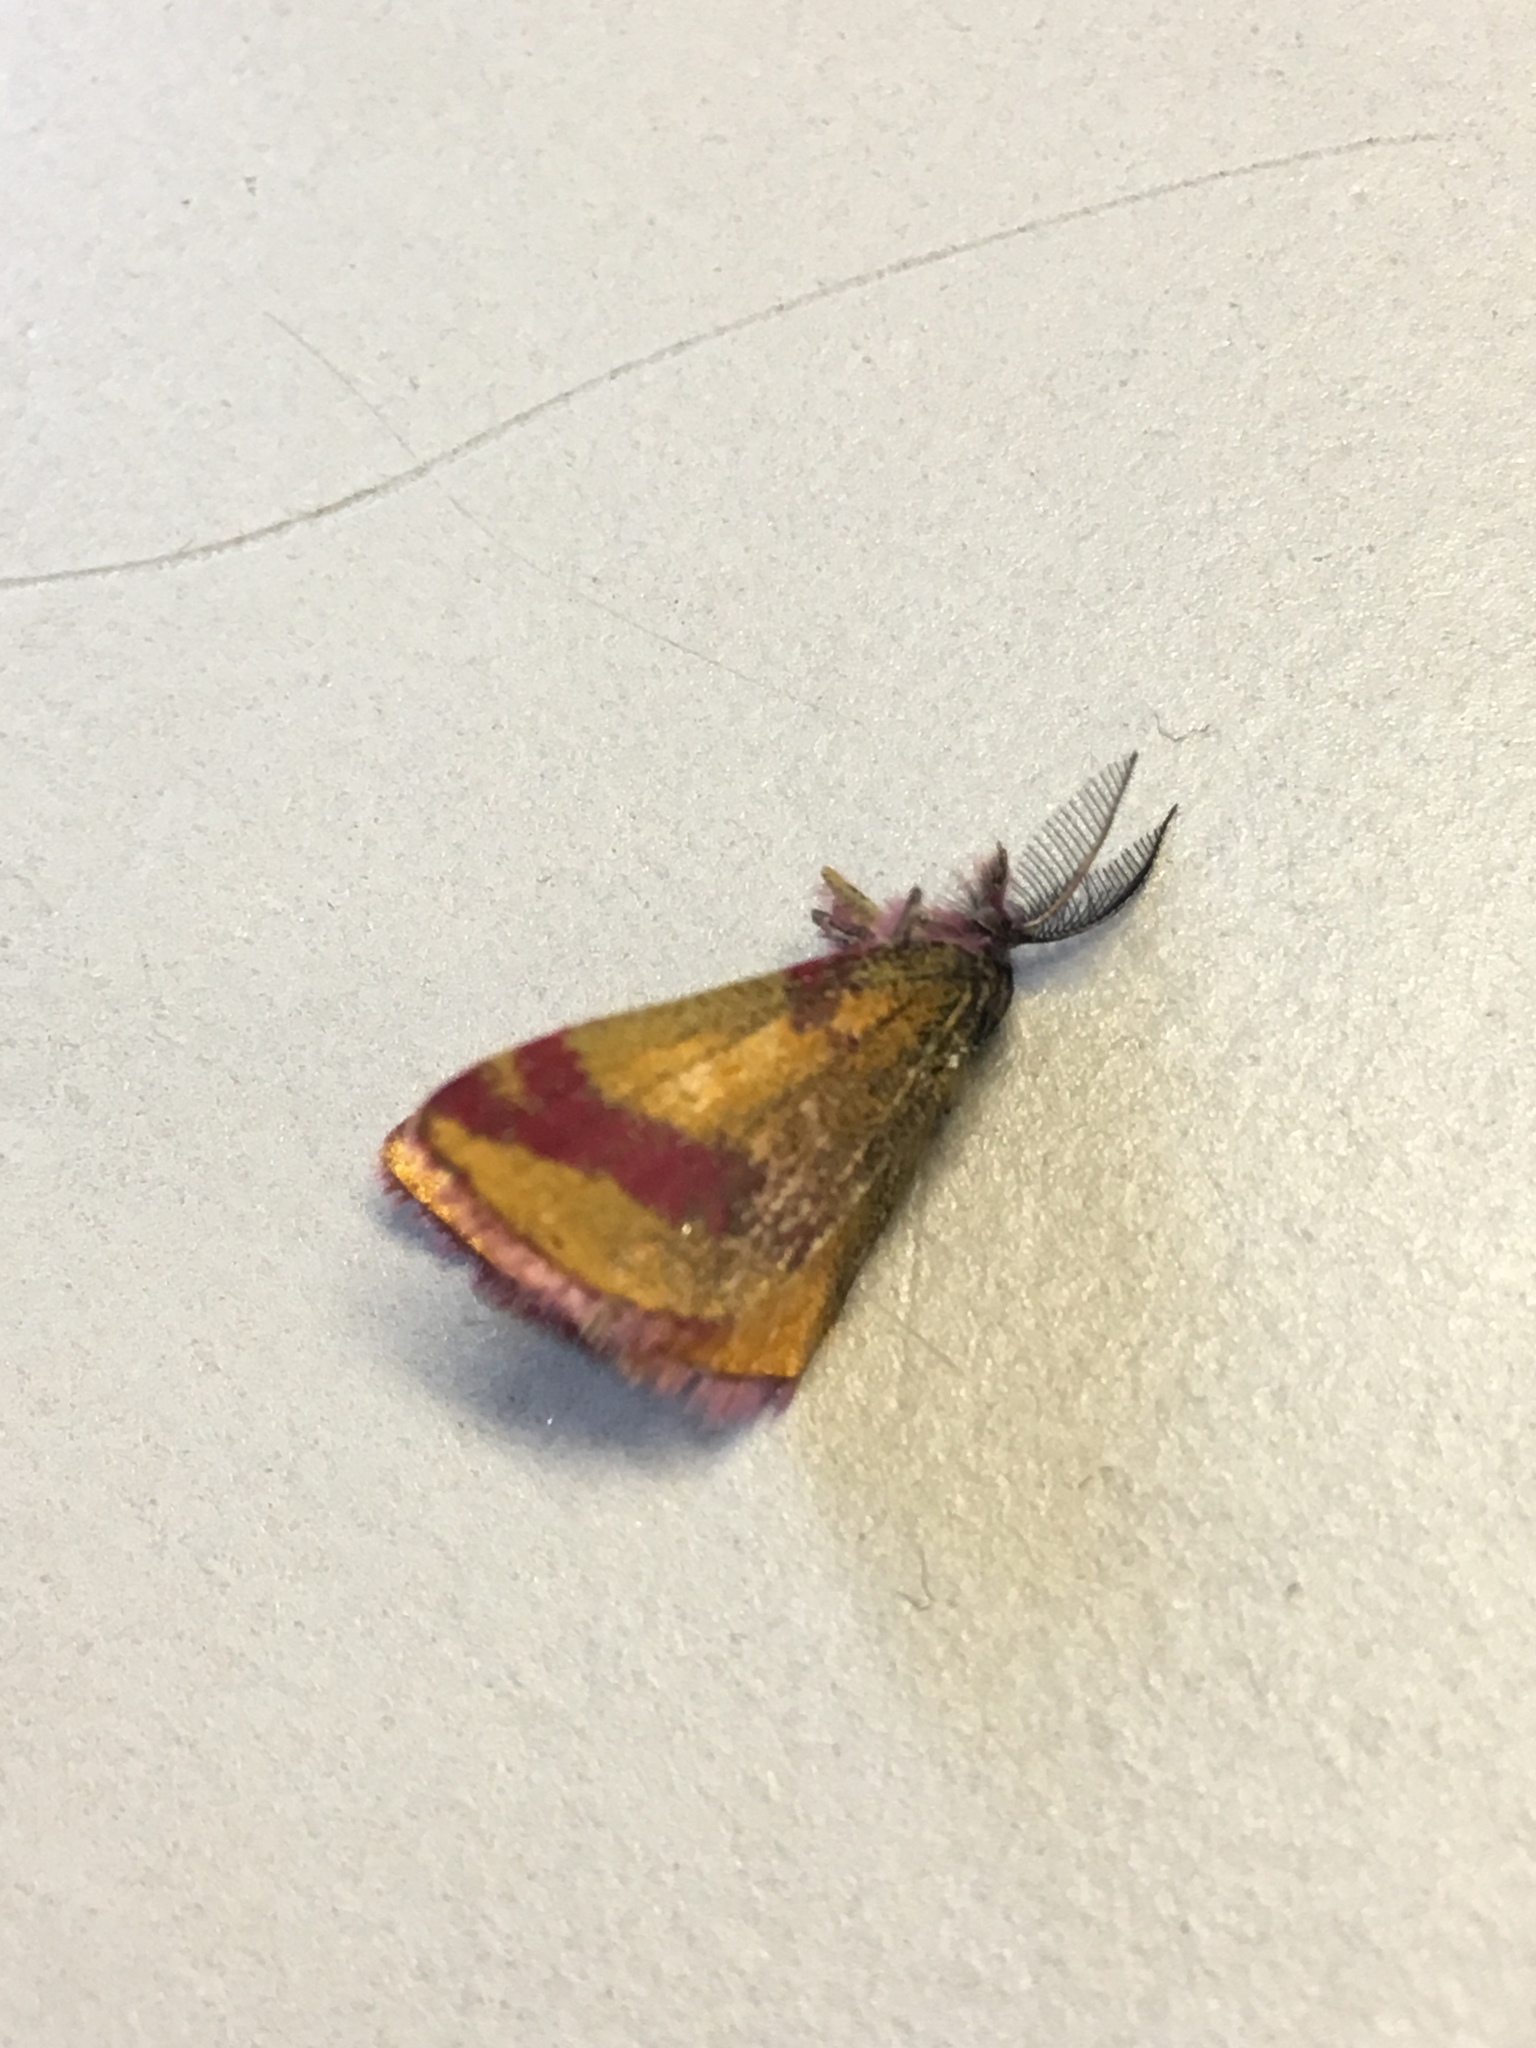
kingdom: Animalia
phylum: Arthropoda
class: Insecta
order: Lepidoptera
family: Geometridae
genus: Lythria
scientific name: Lythria cruentaria
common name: Purple-barred yellow
